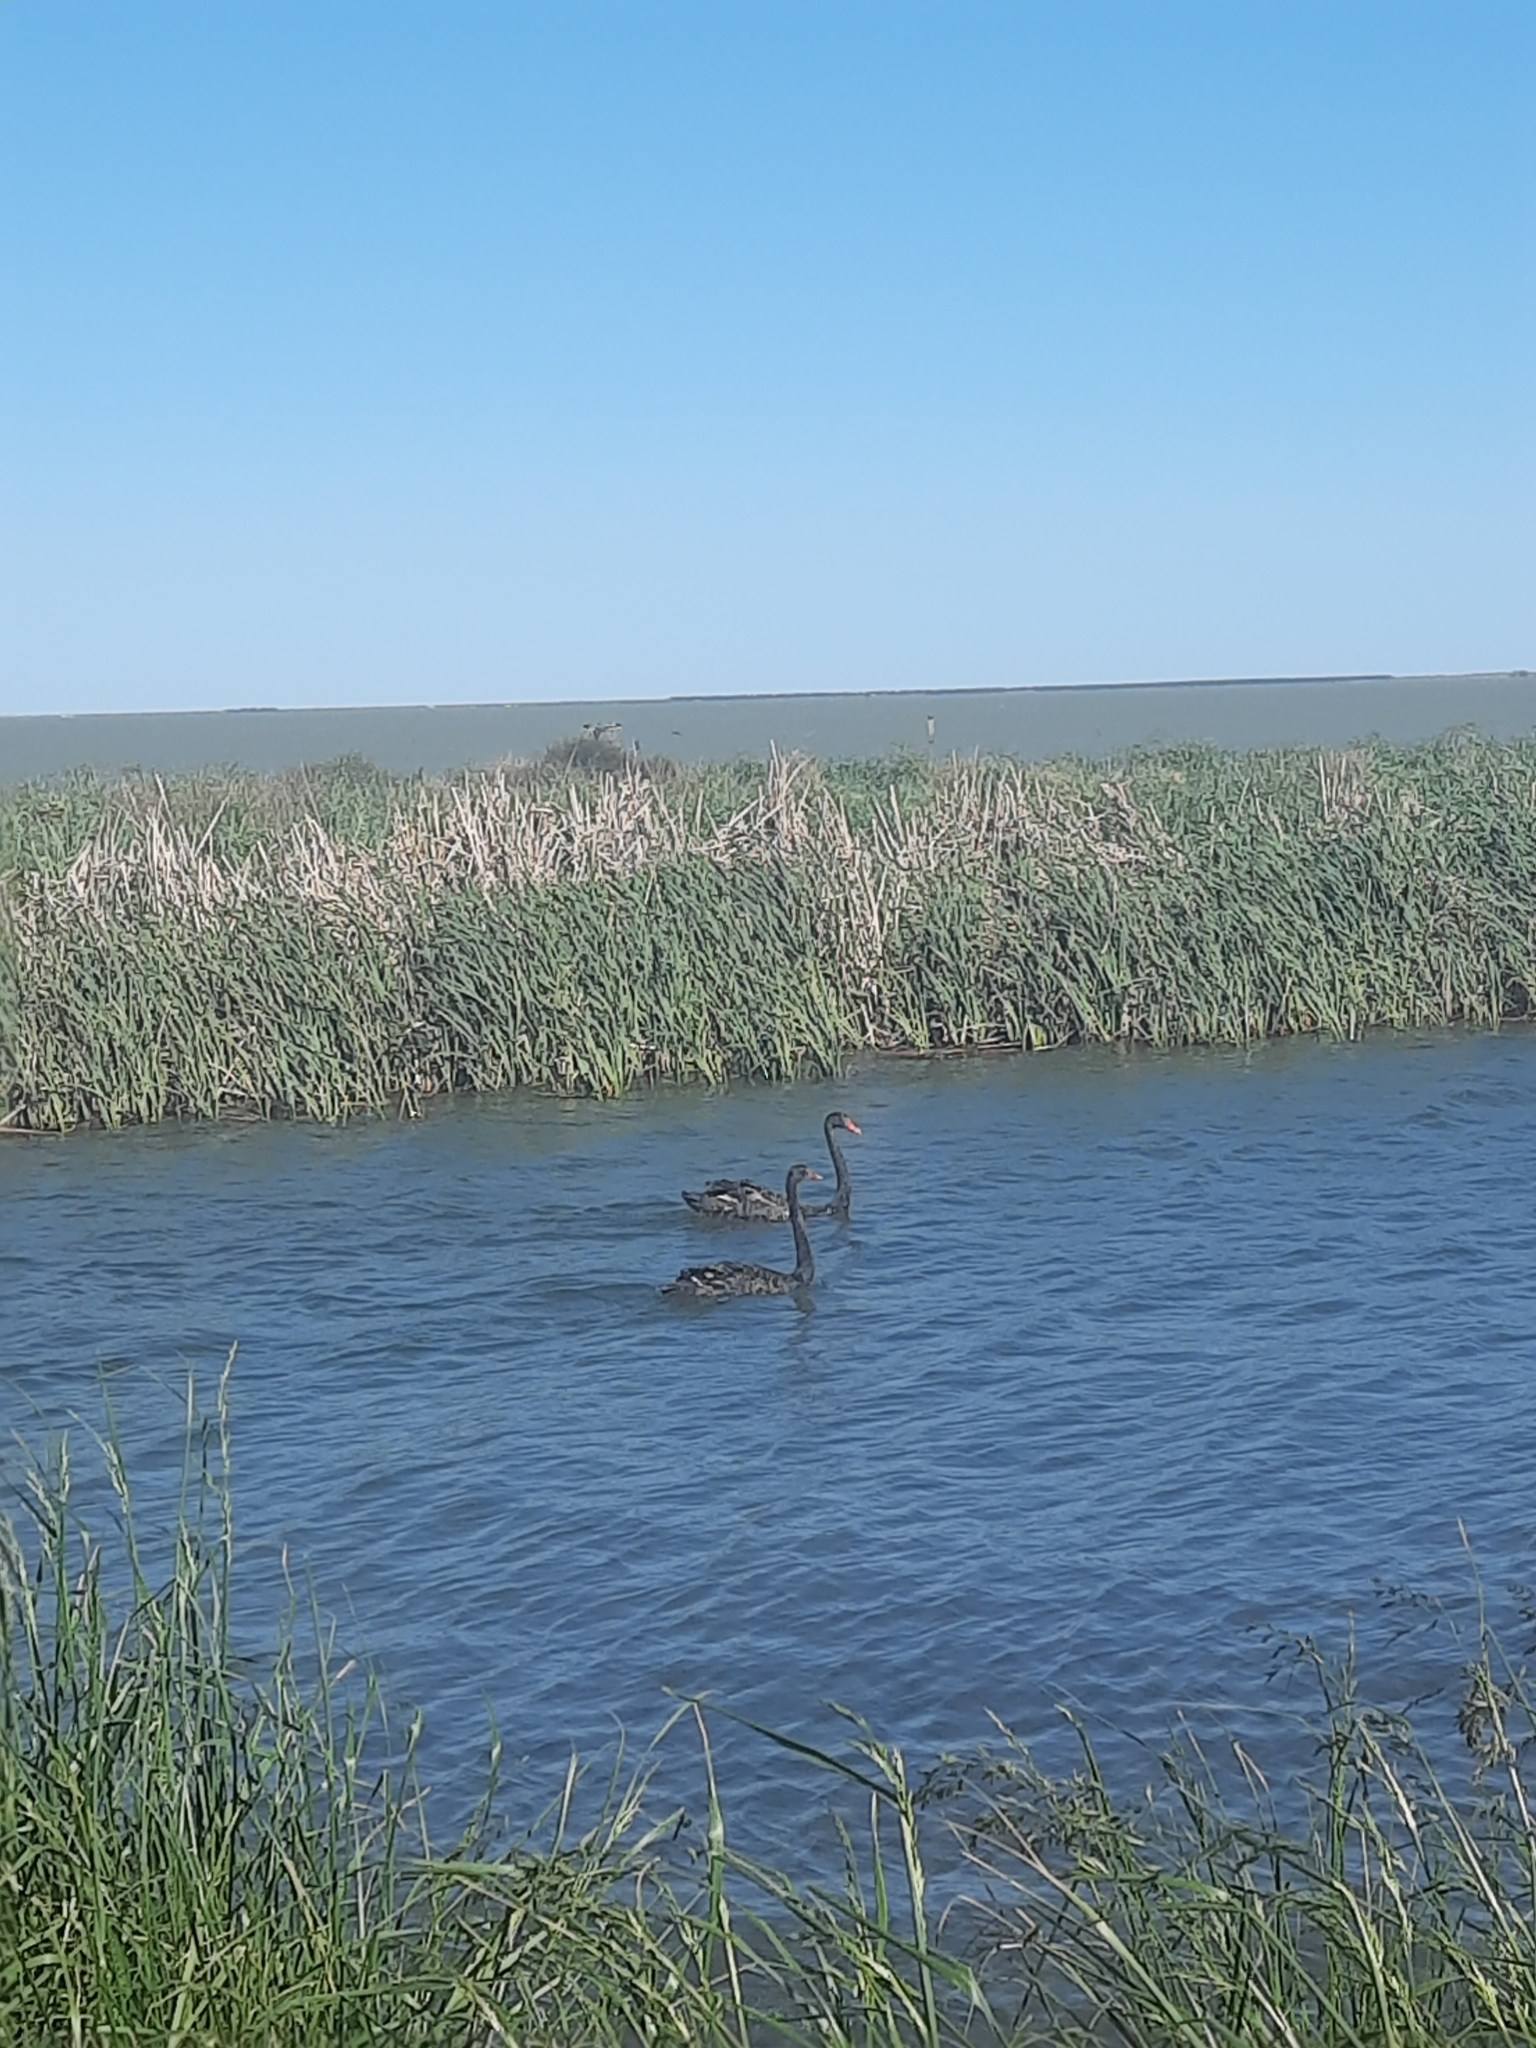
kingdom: Animalia
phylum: Chordata
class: Aves
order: Anseriformes
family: Anatidae
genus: Cygnus
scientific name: Cygnus atratus
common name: Black swan
